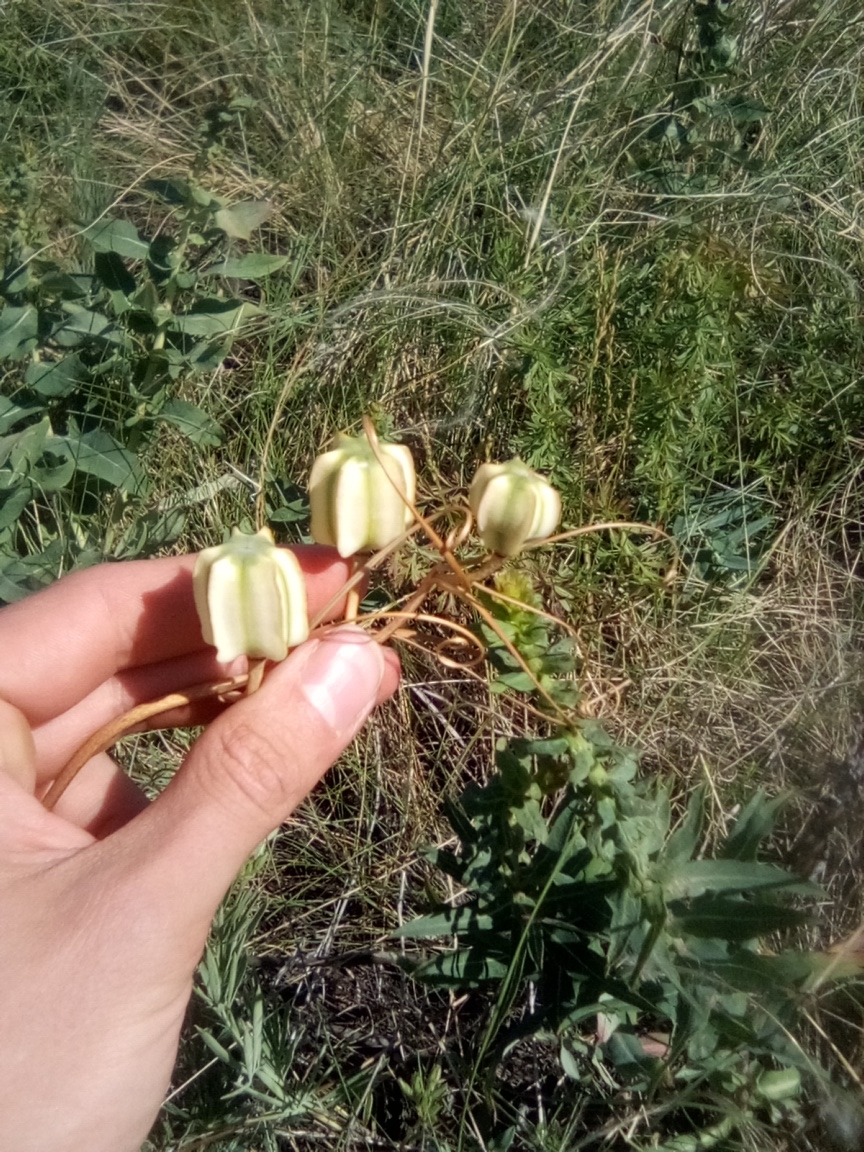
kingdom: Plantae
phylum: Tracheophyta
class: Liliopsida
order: Liliales
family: Liliaceae
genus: Fritillaria
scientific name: Fritillaria ruthenica
